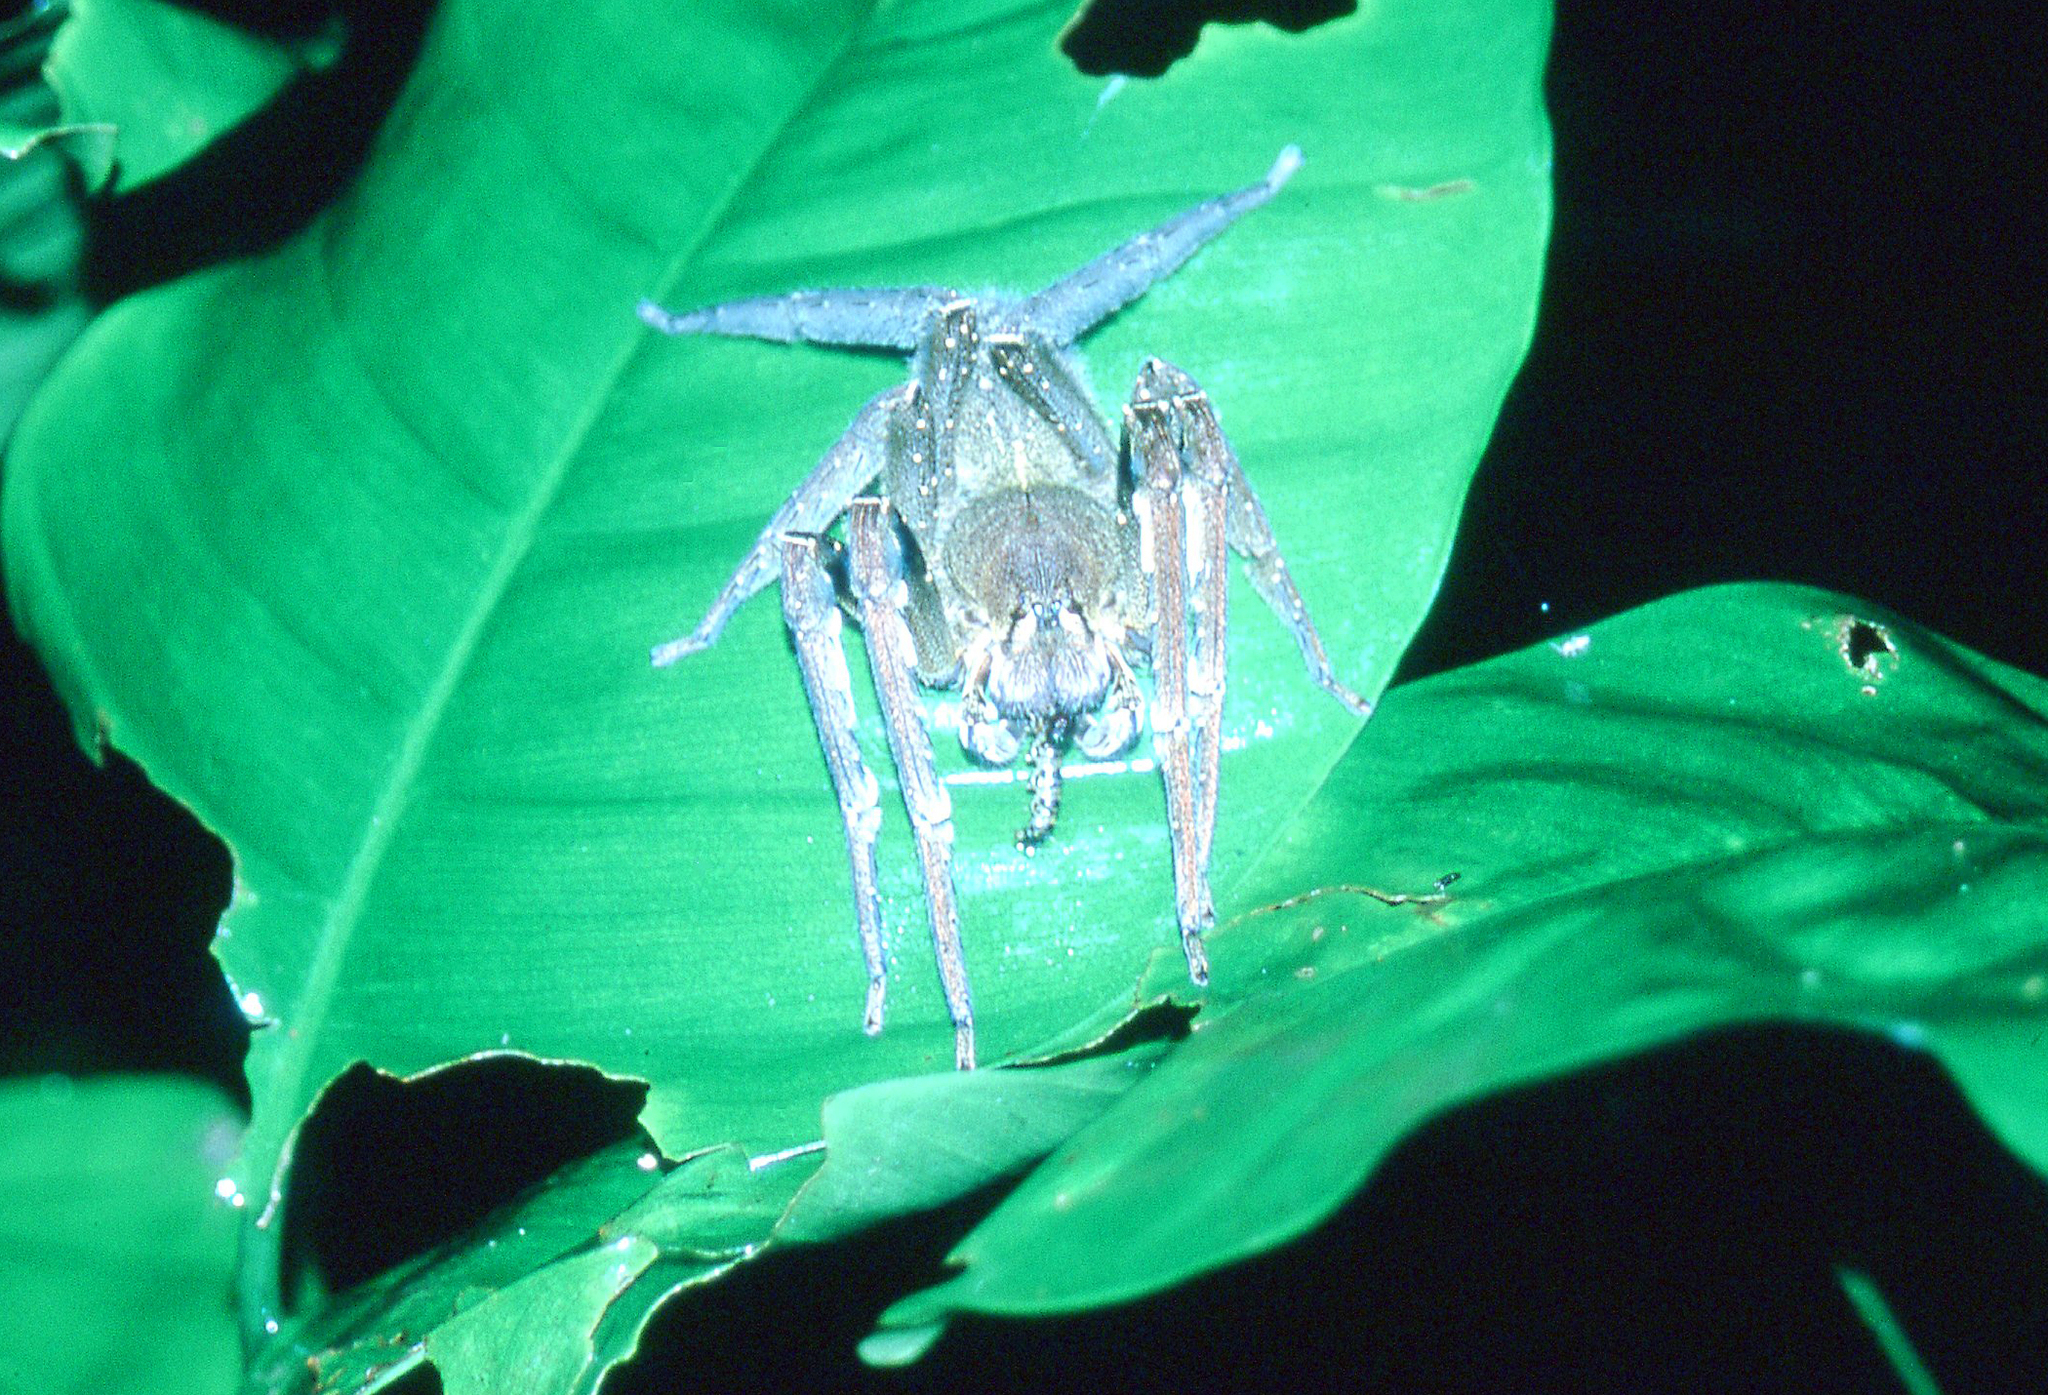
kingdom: Animalia
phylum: Arthropoda
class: Arachnida
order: Araneae
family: Ctenidae
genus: Phoneutria
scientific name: Phoneutria fera
